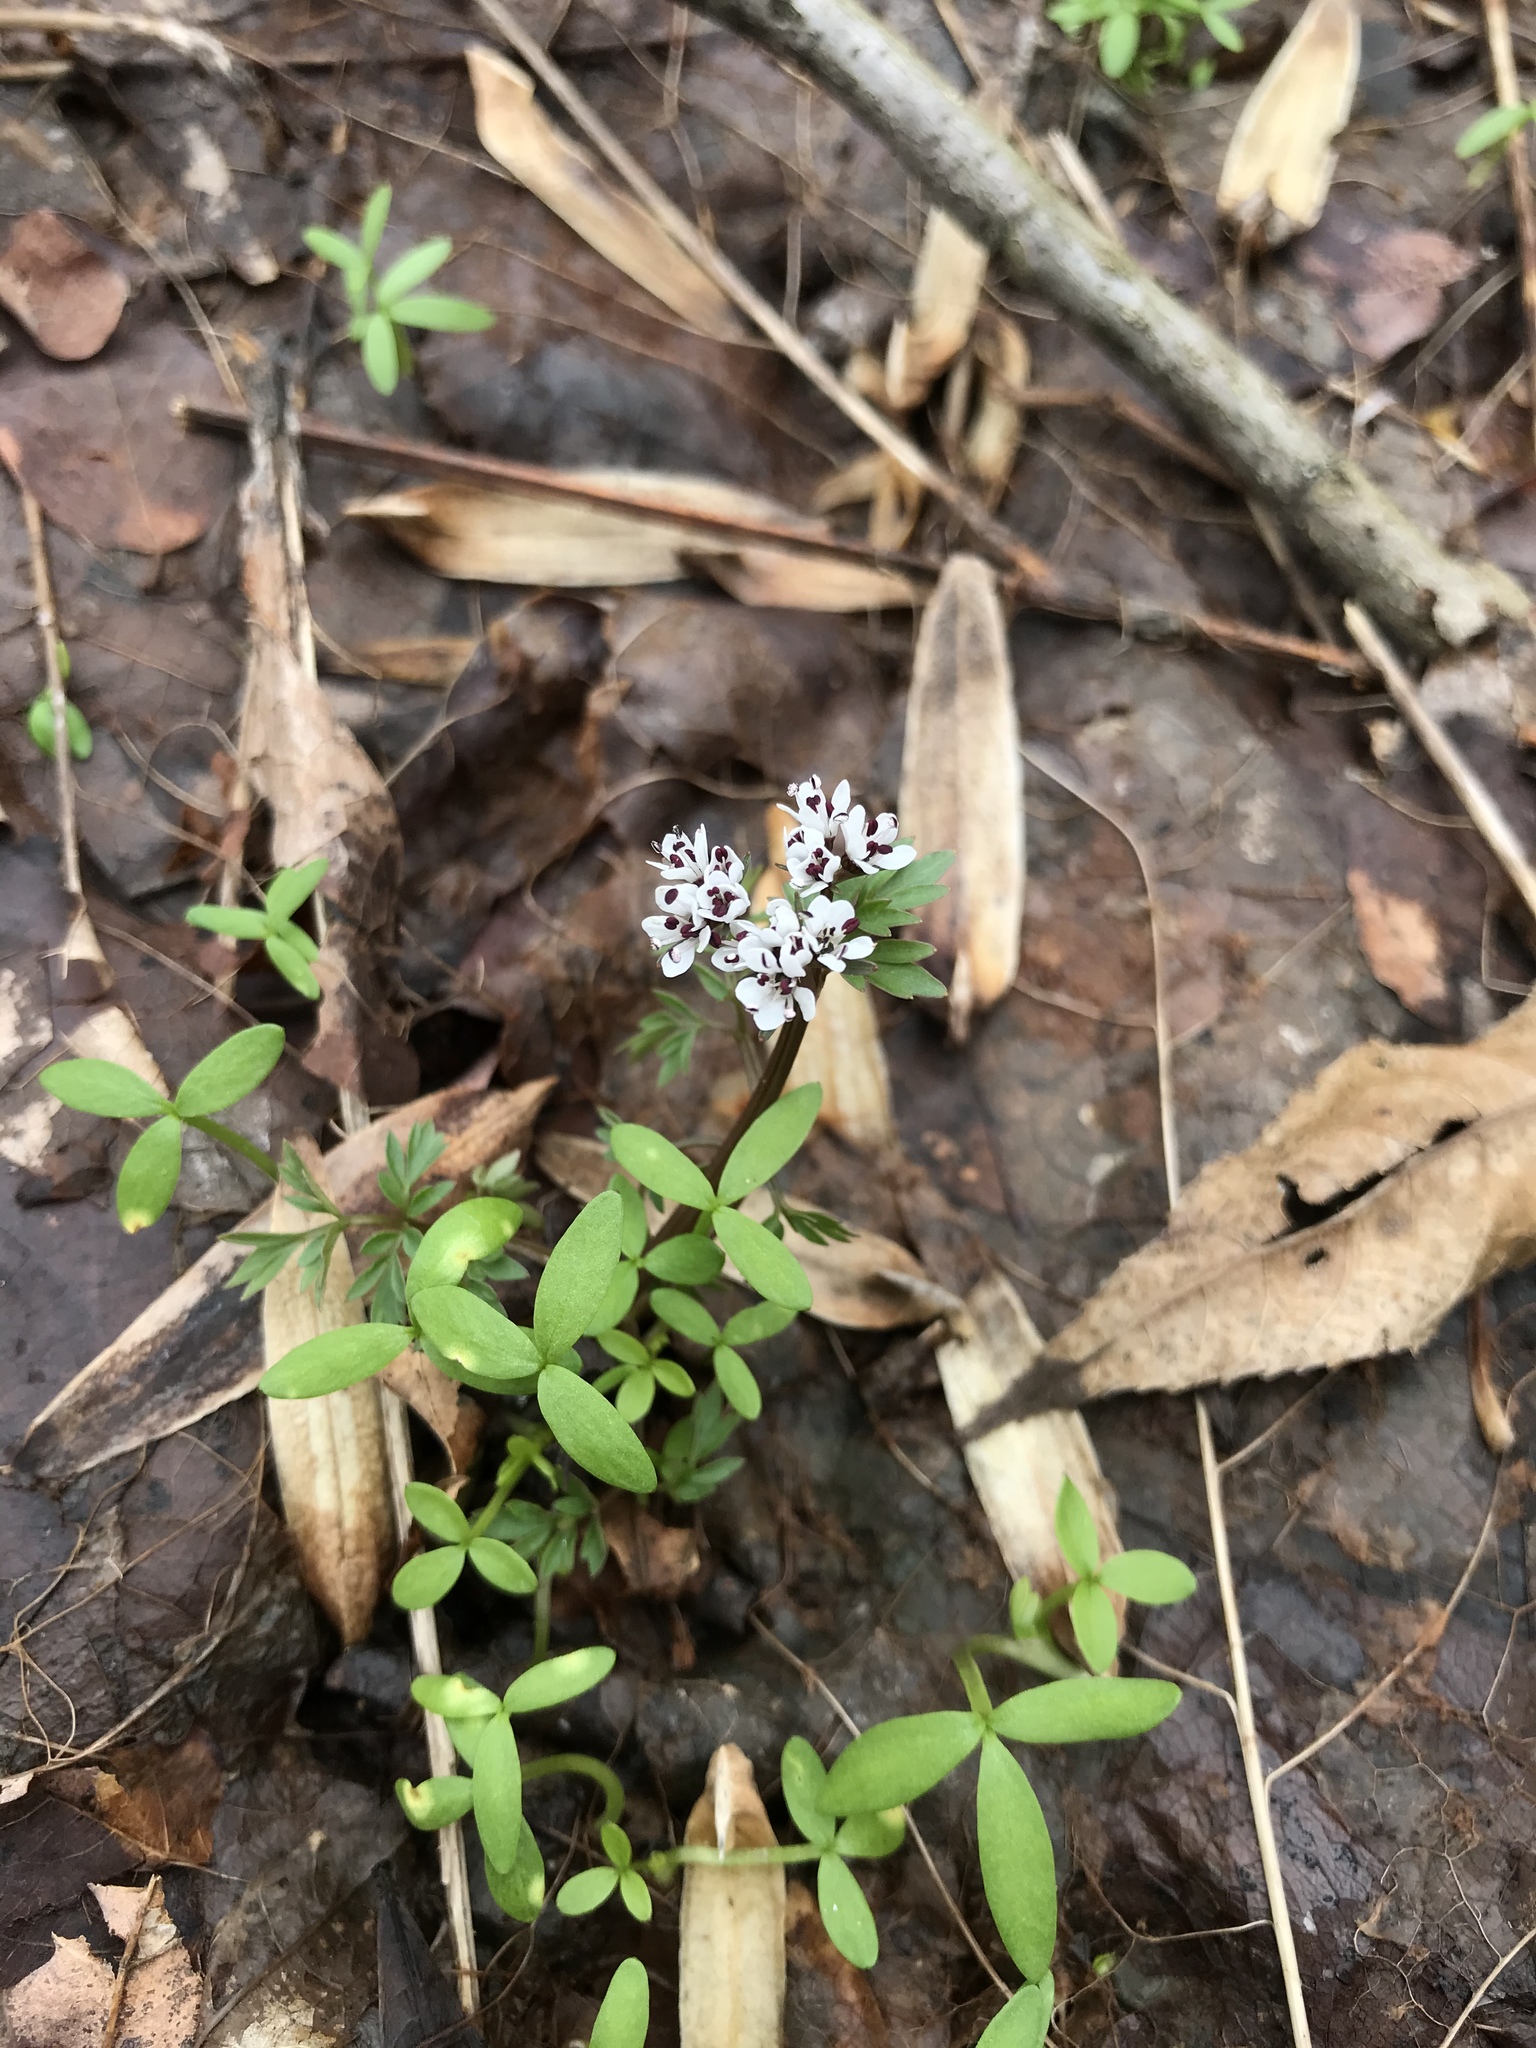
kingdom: Plantae
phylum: Tracheophyta
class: Magnoliopsida
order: Apiales
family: Apiaceae
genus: Erigenia
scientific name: Erigenia bulbosa
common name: Pepper-and-salt
